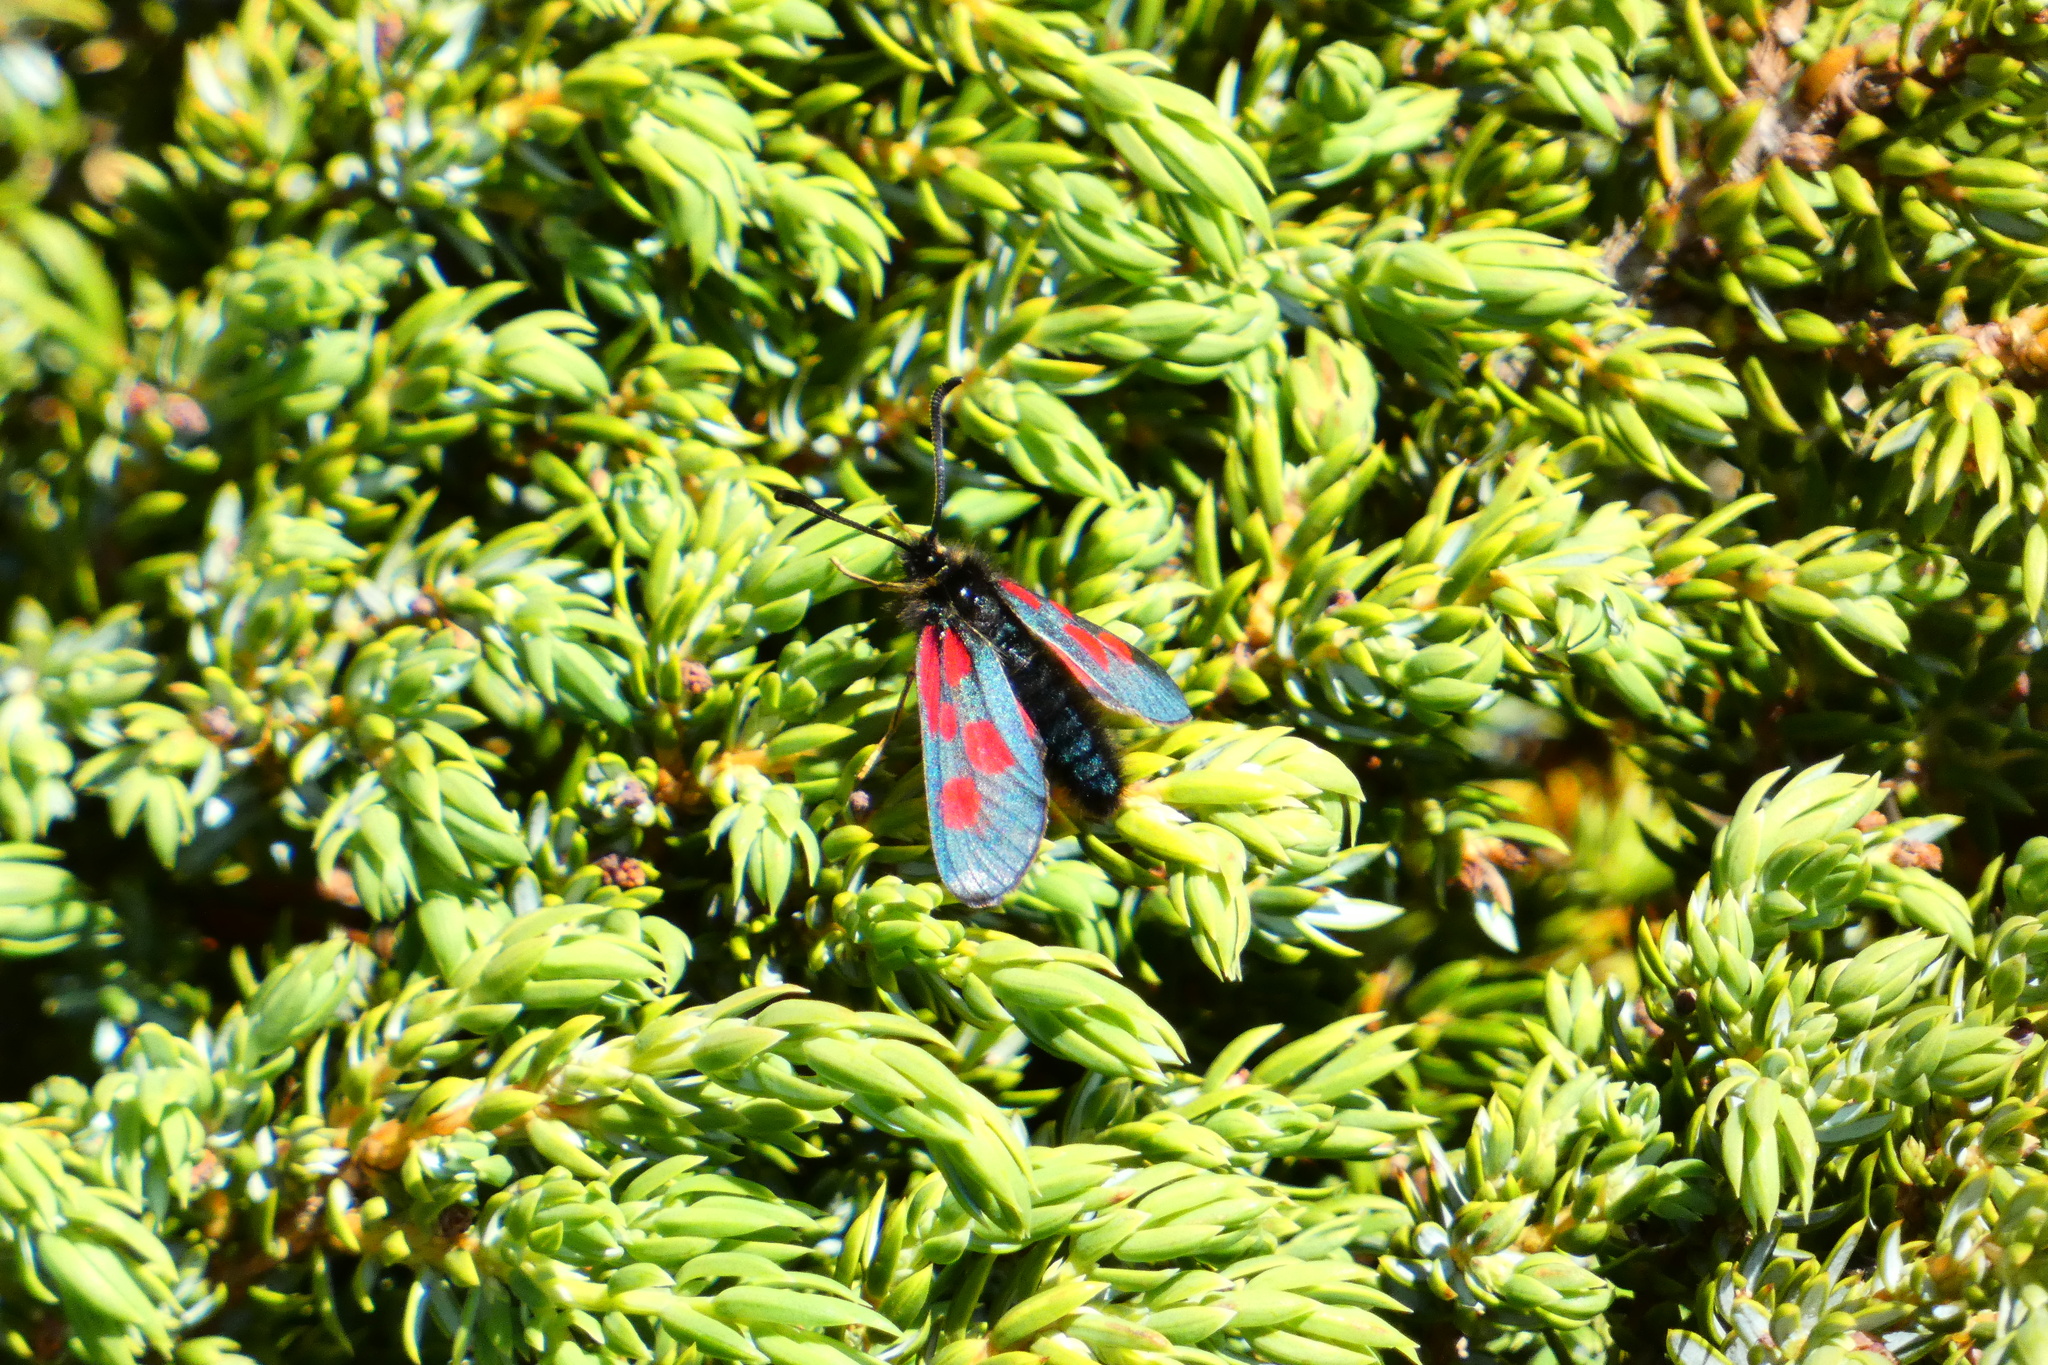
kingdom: Animalia
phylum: Arthropoda
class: Insecta
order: Lepidoptera
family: Zygaenidae
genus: Zygaena
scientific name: Zygaena exulans
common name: Scotch burnet
